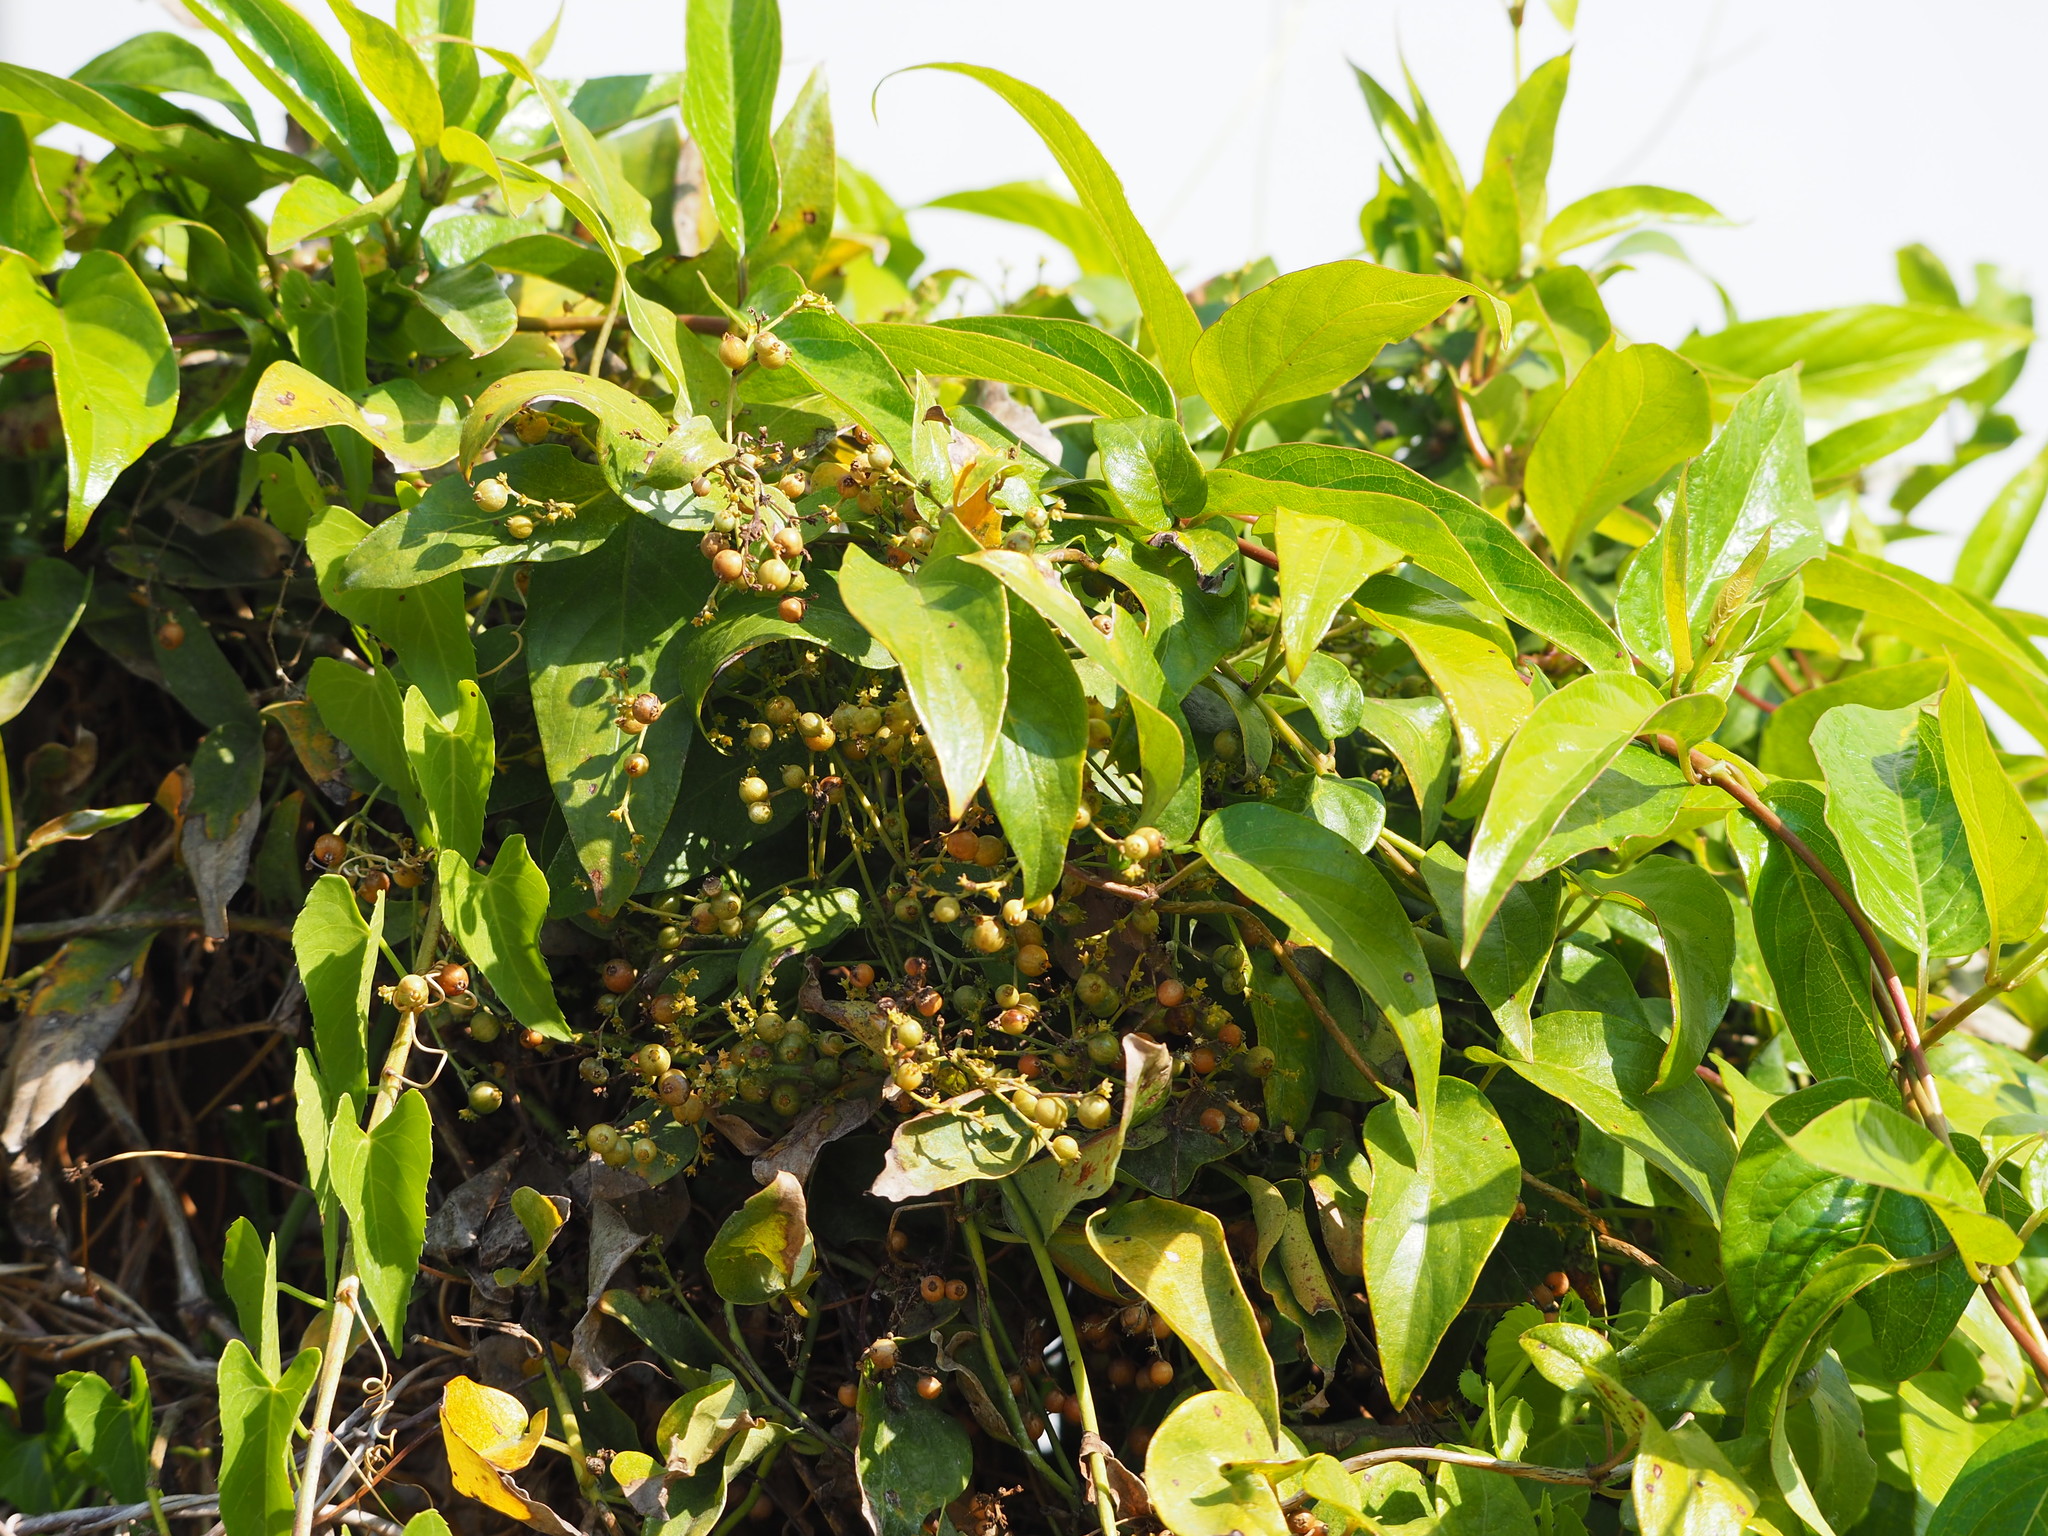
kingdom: Plantae
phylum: Tracheophyta
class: Magnoliopsida
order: Gentianales
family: Rubiaceae
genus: Paederia
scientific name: Paederia foetida
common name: Stinkvine
